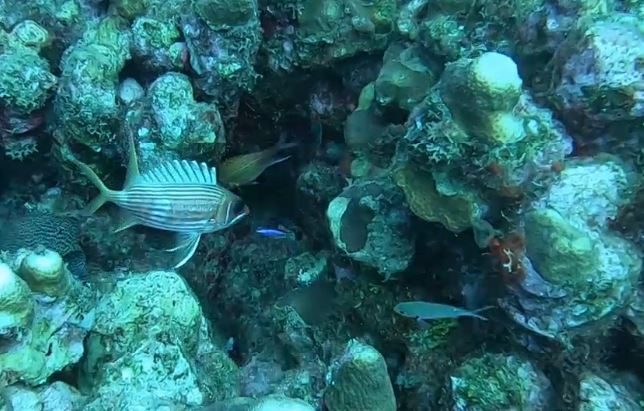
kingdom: Animalia
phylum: Chordata
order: Beryciformes
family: Holocentridae
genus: Holocentrus
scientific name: Holocentrus rufus
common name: Longspine squirrelfish
